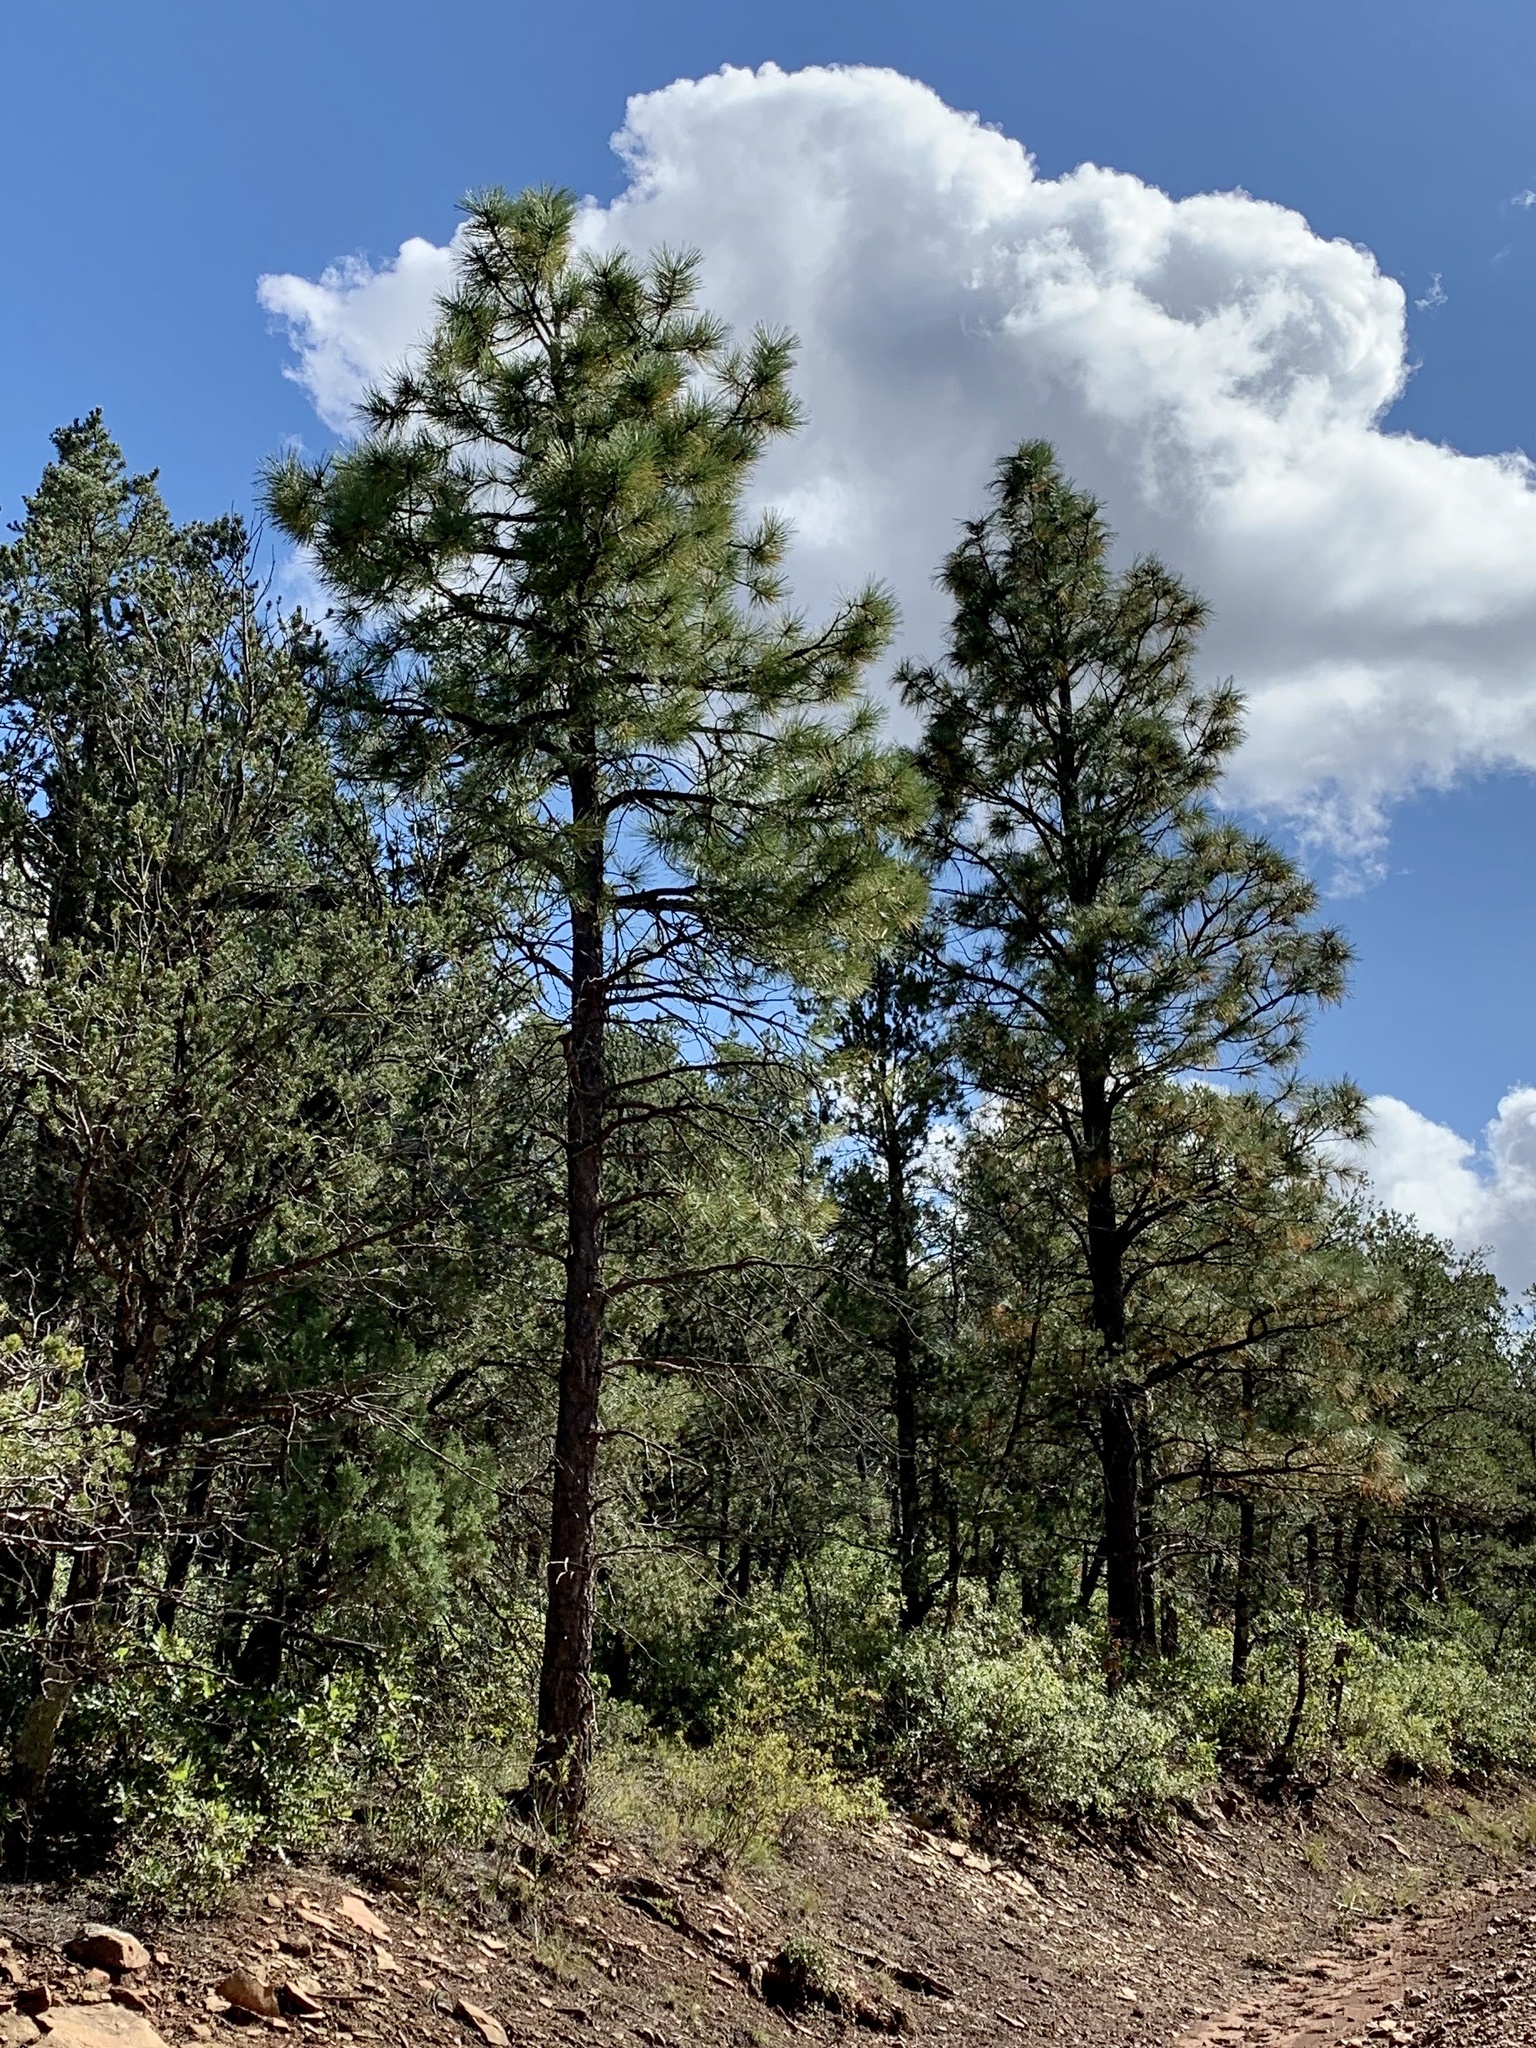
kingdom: Plantae
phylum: Tracheophyta
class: Pinopsida
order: Pinales
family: Pinaceae
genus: Pinus
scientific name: Pinus ponderosa
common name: Western yellow-pine
